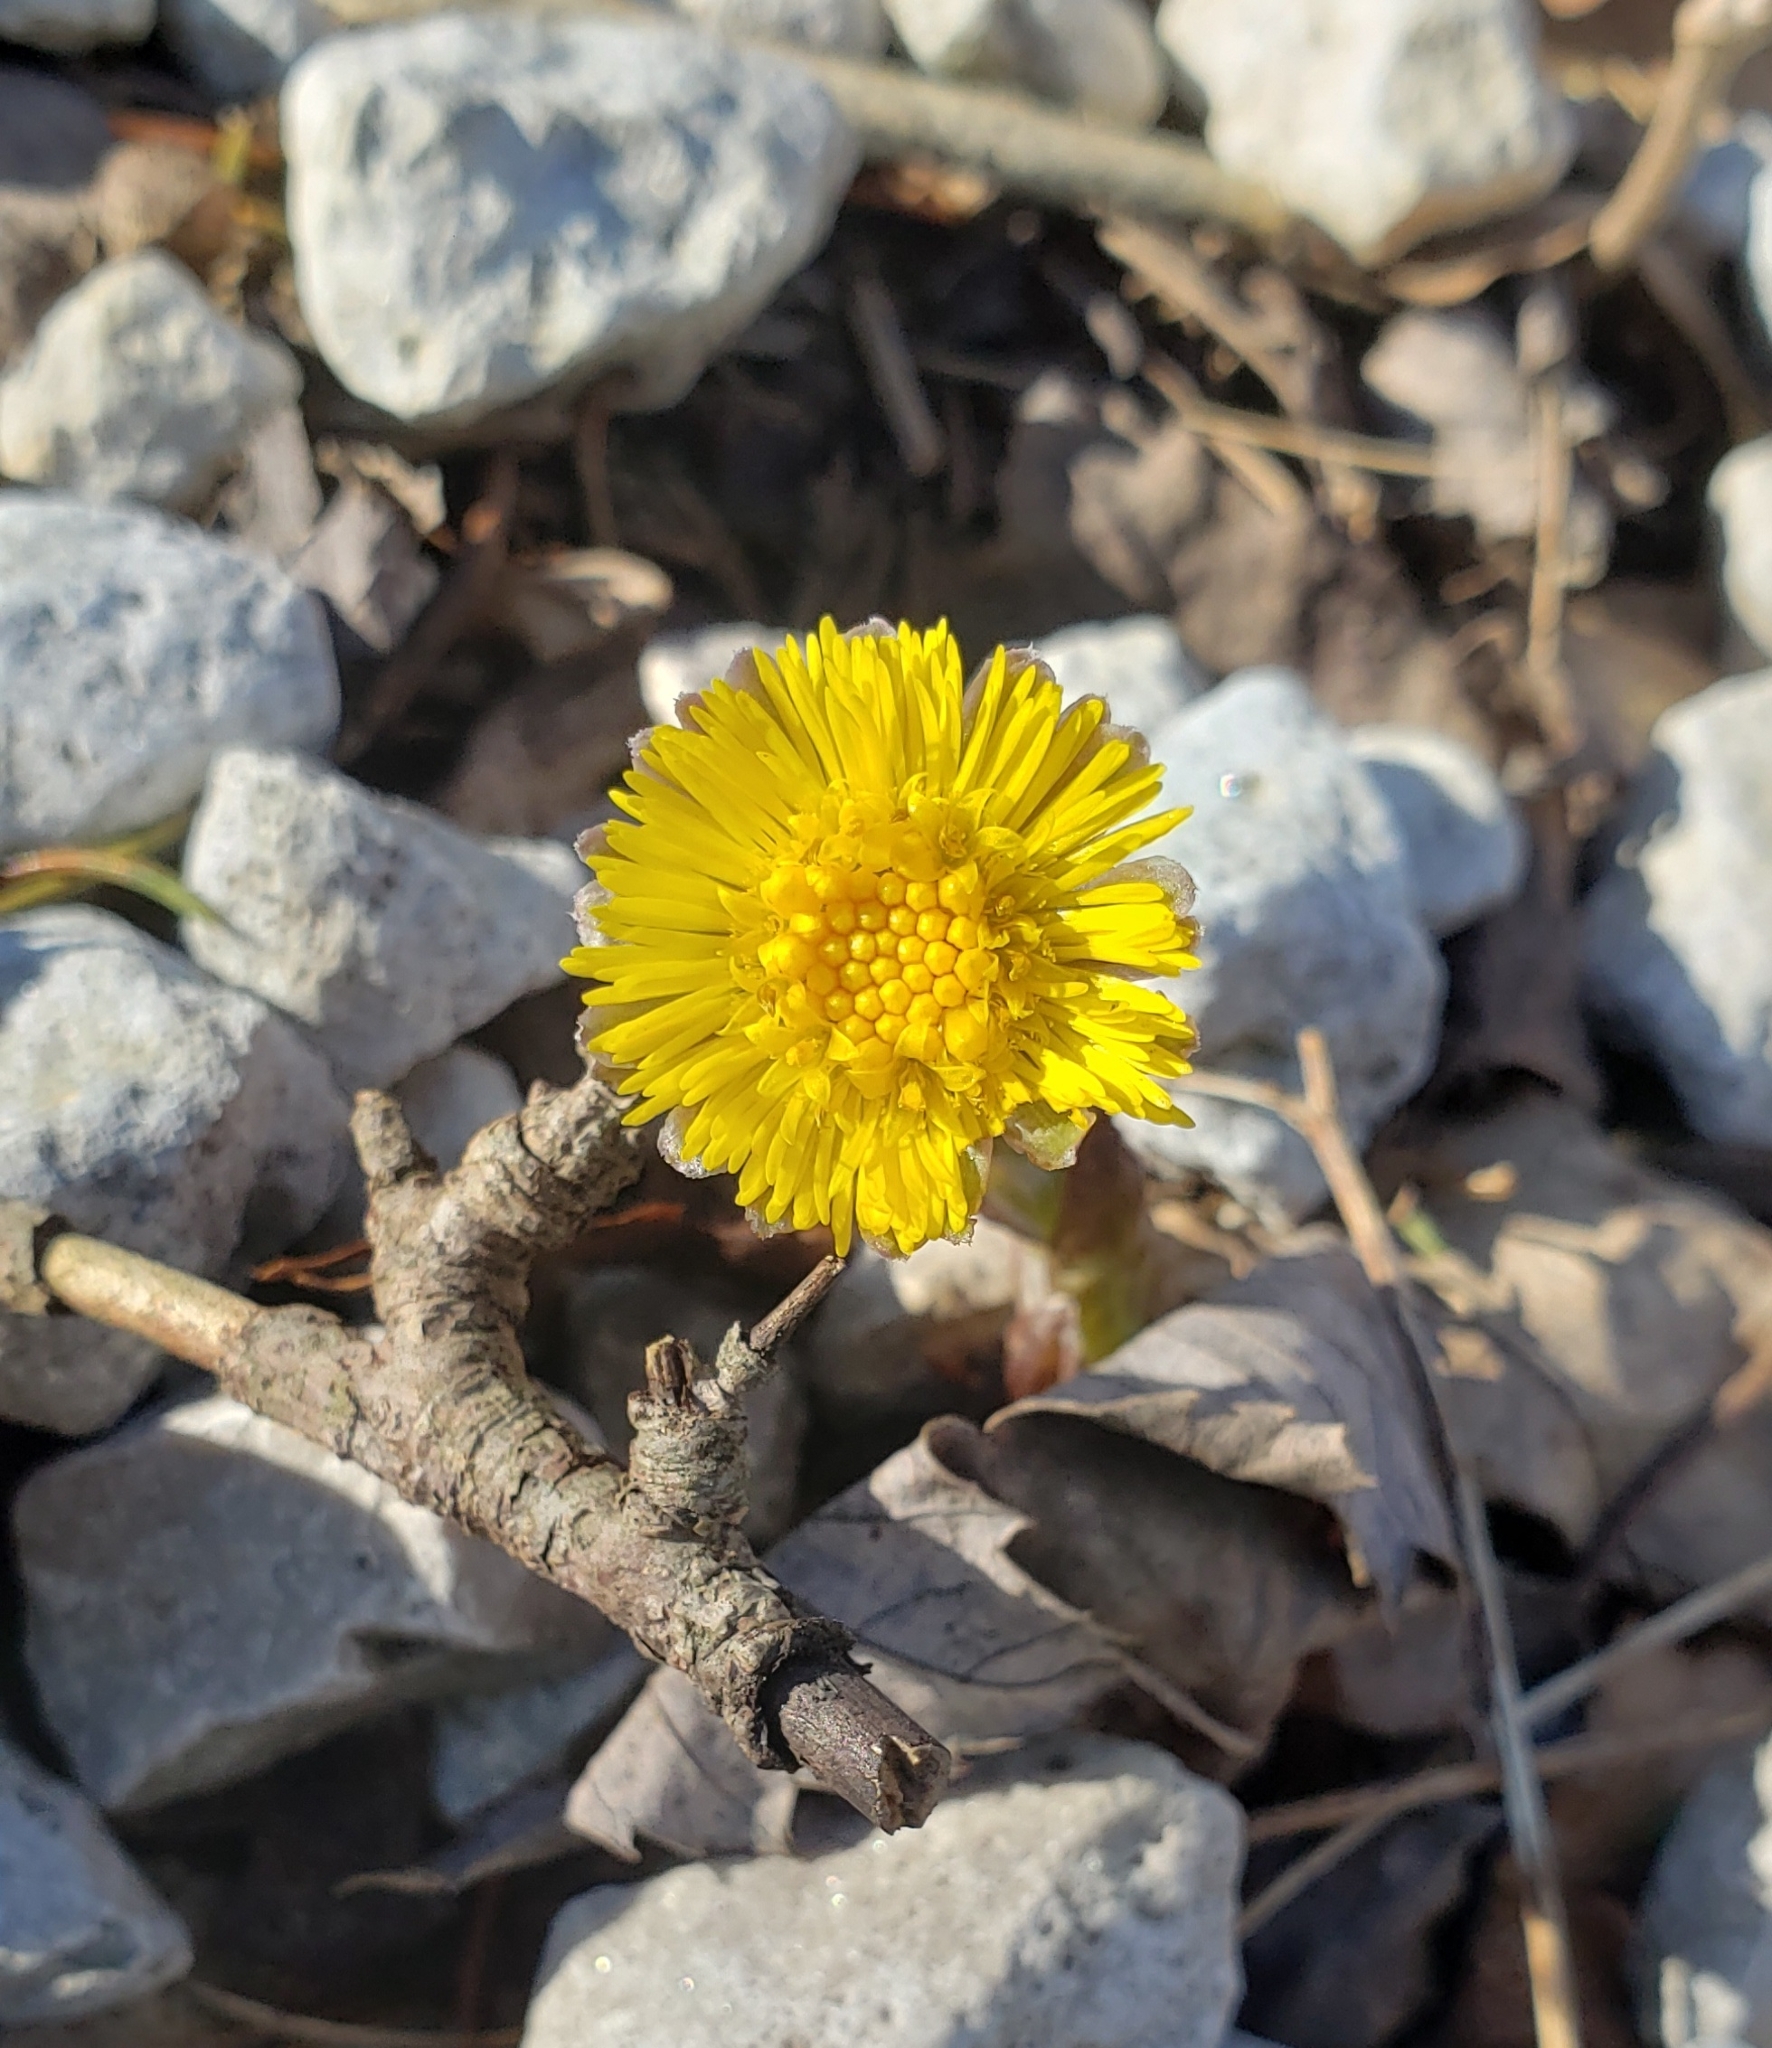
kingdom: Plantae
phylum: Tracheophyta
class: Magnoliopsida
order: Asterales
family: Asteraceae
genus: Tussilago
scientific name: Tussilago farfara
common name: Coltsfoot
